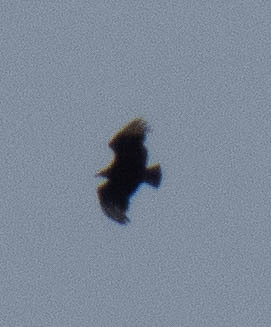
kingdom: Animalia
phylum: Chordata
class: Aves
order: Accipitriformes
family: Cathartidae
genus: Coragyps
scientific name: Coragyps atratus
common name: Black vulture
